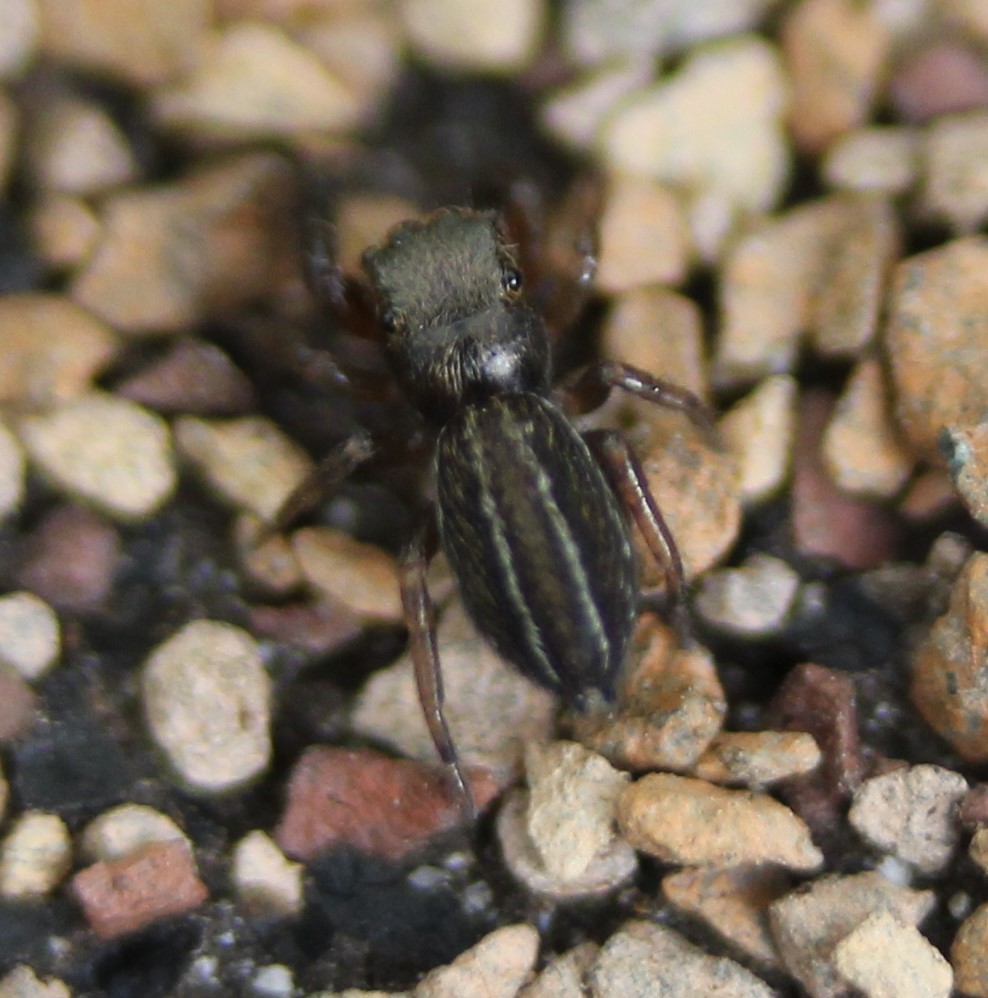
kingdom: Animalia
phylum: Arthropoda
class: Arachnida
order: Araneae
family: Salticidae
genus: Marpissa
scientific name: Marpissa lineata
